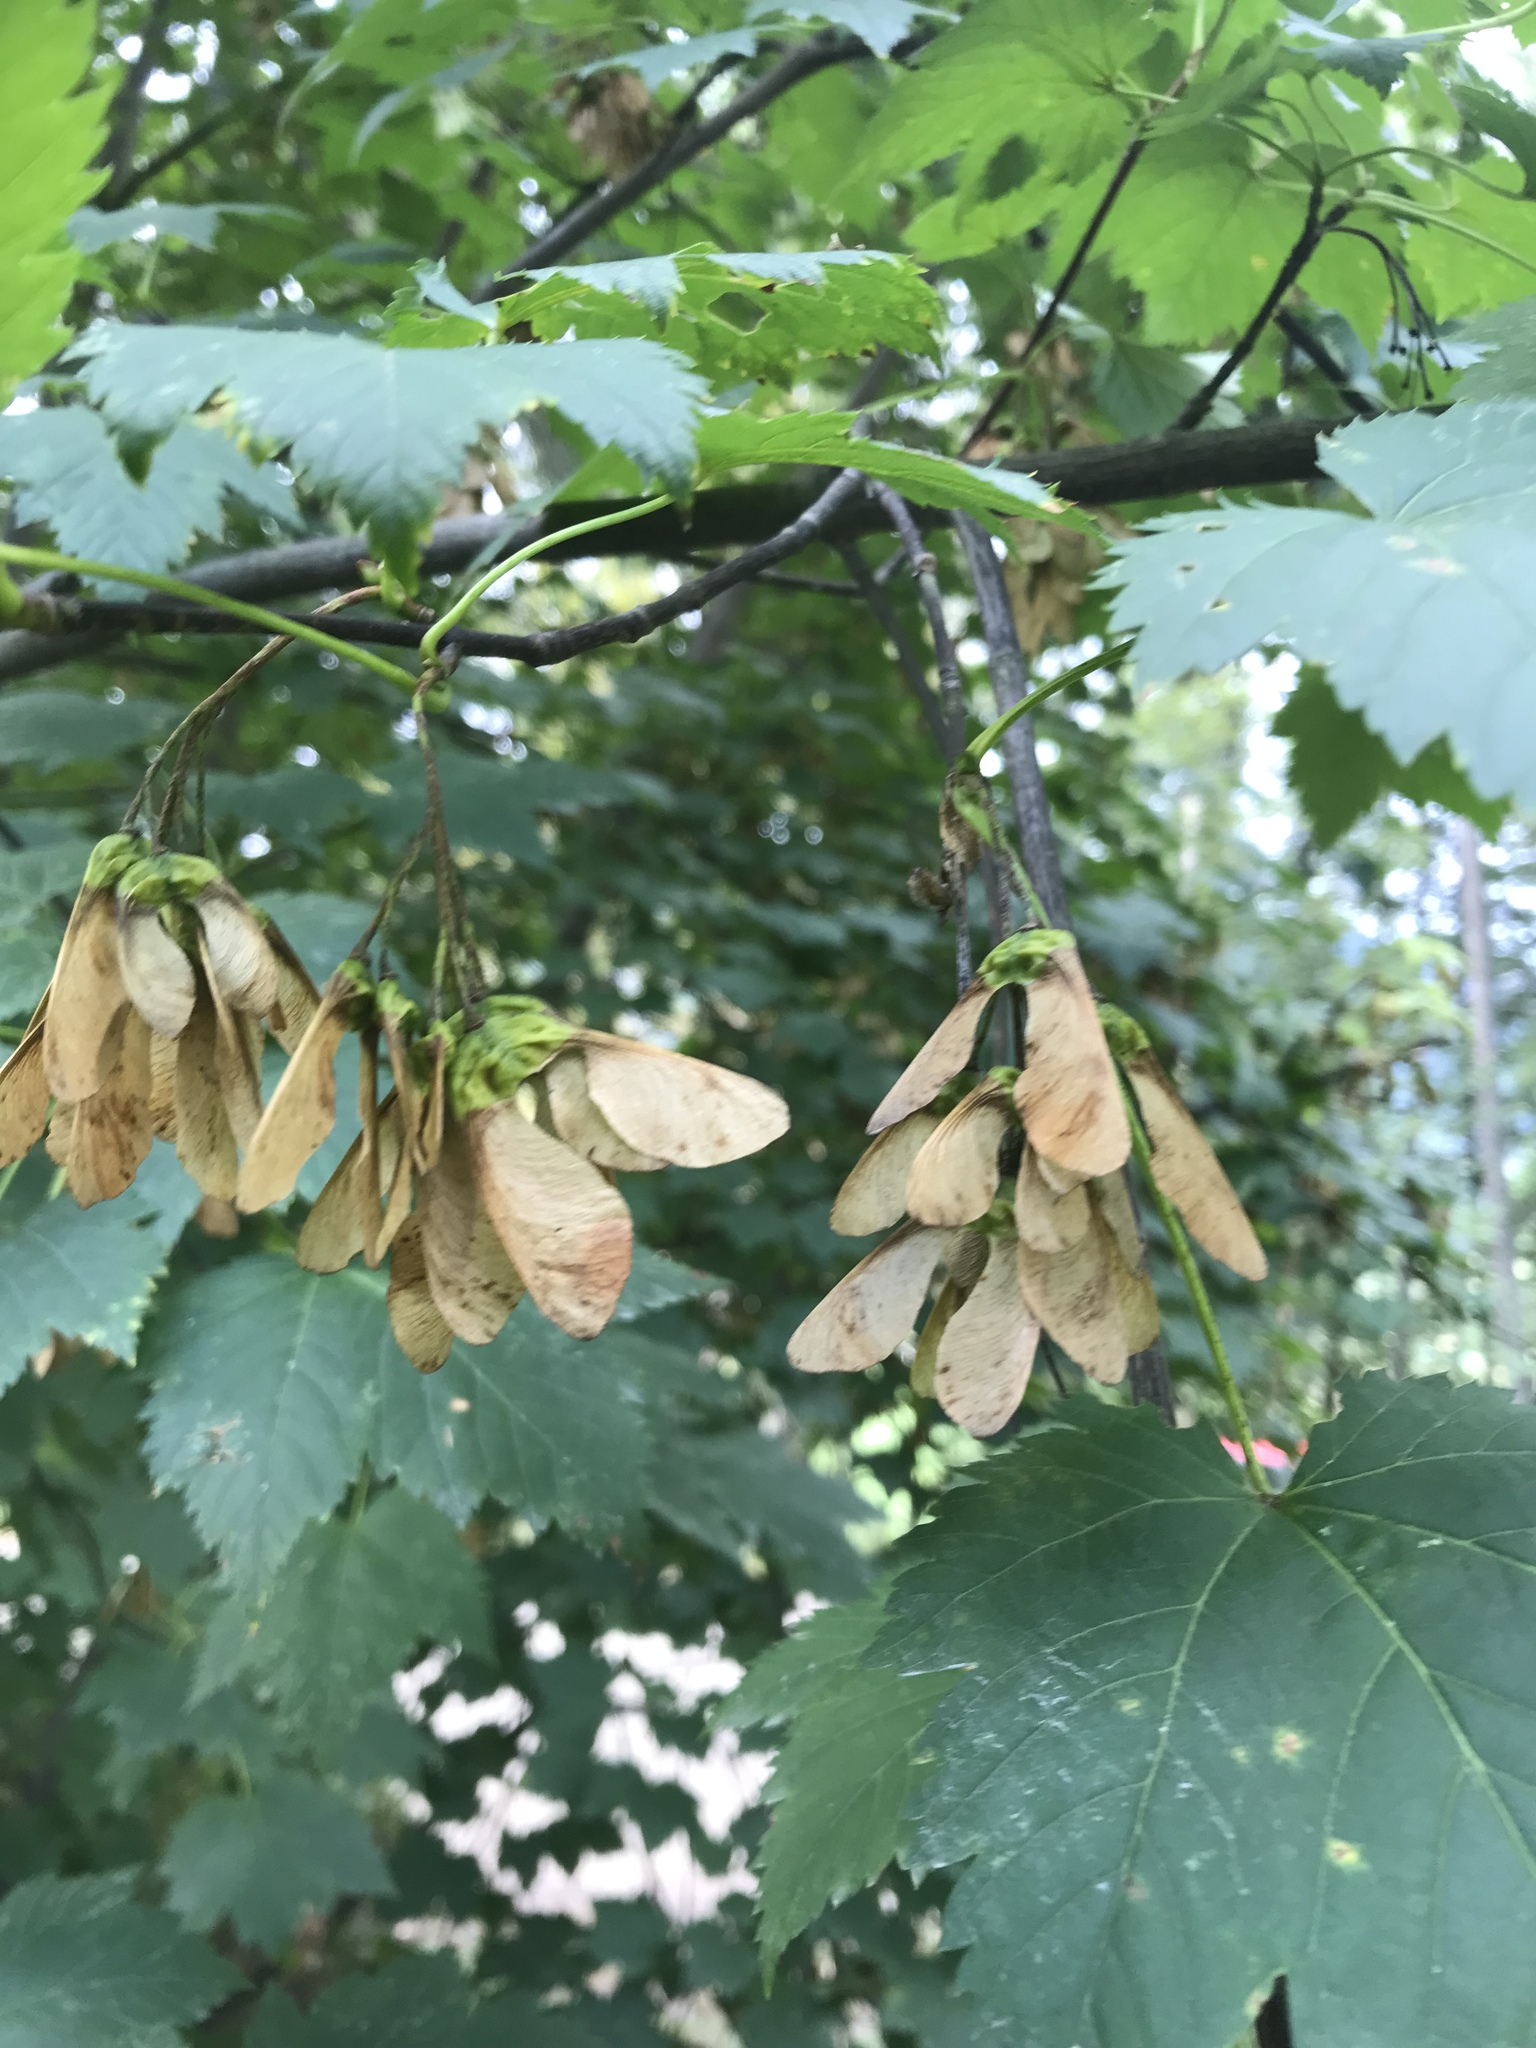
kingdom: Plantae
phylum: Tracheophyta
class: Magnoliopsida
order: Sapindales
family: Sapindaceae
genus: Acer
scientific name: Acer glabrum
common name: Rocky mountain maple
